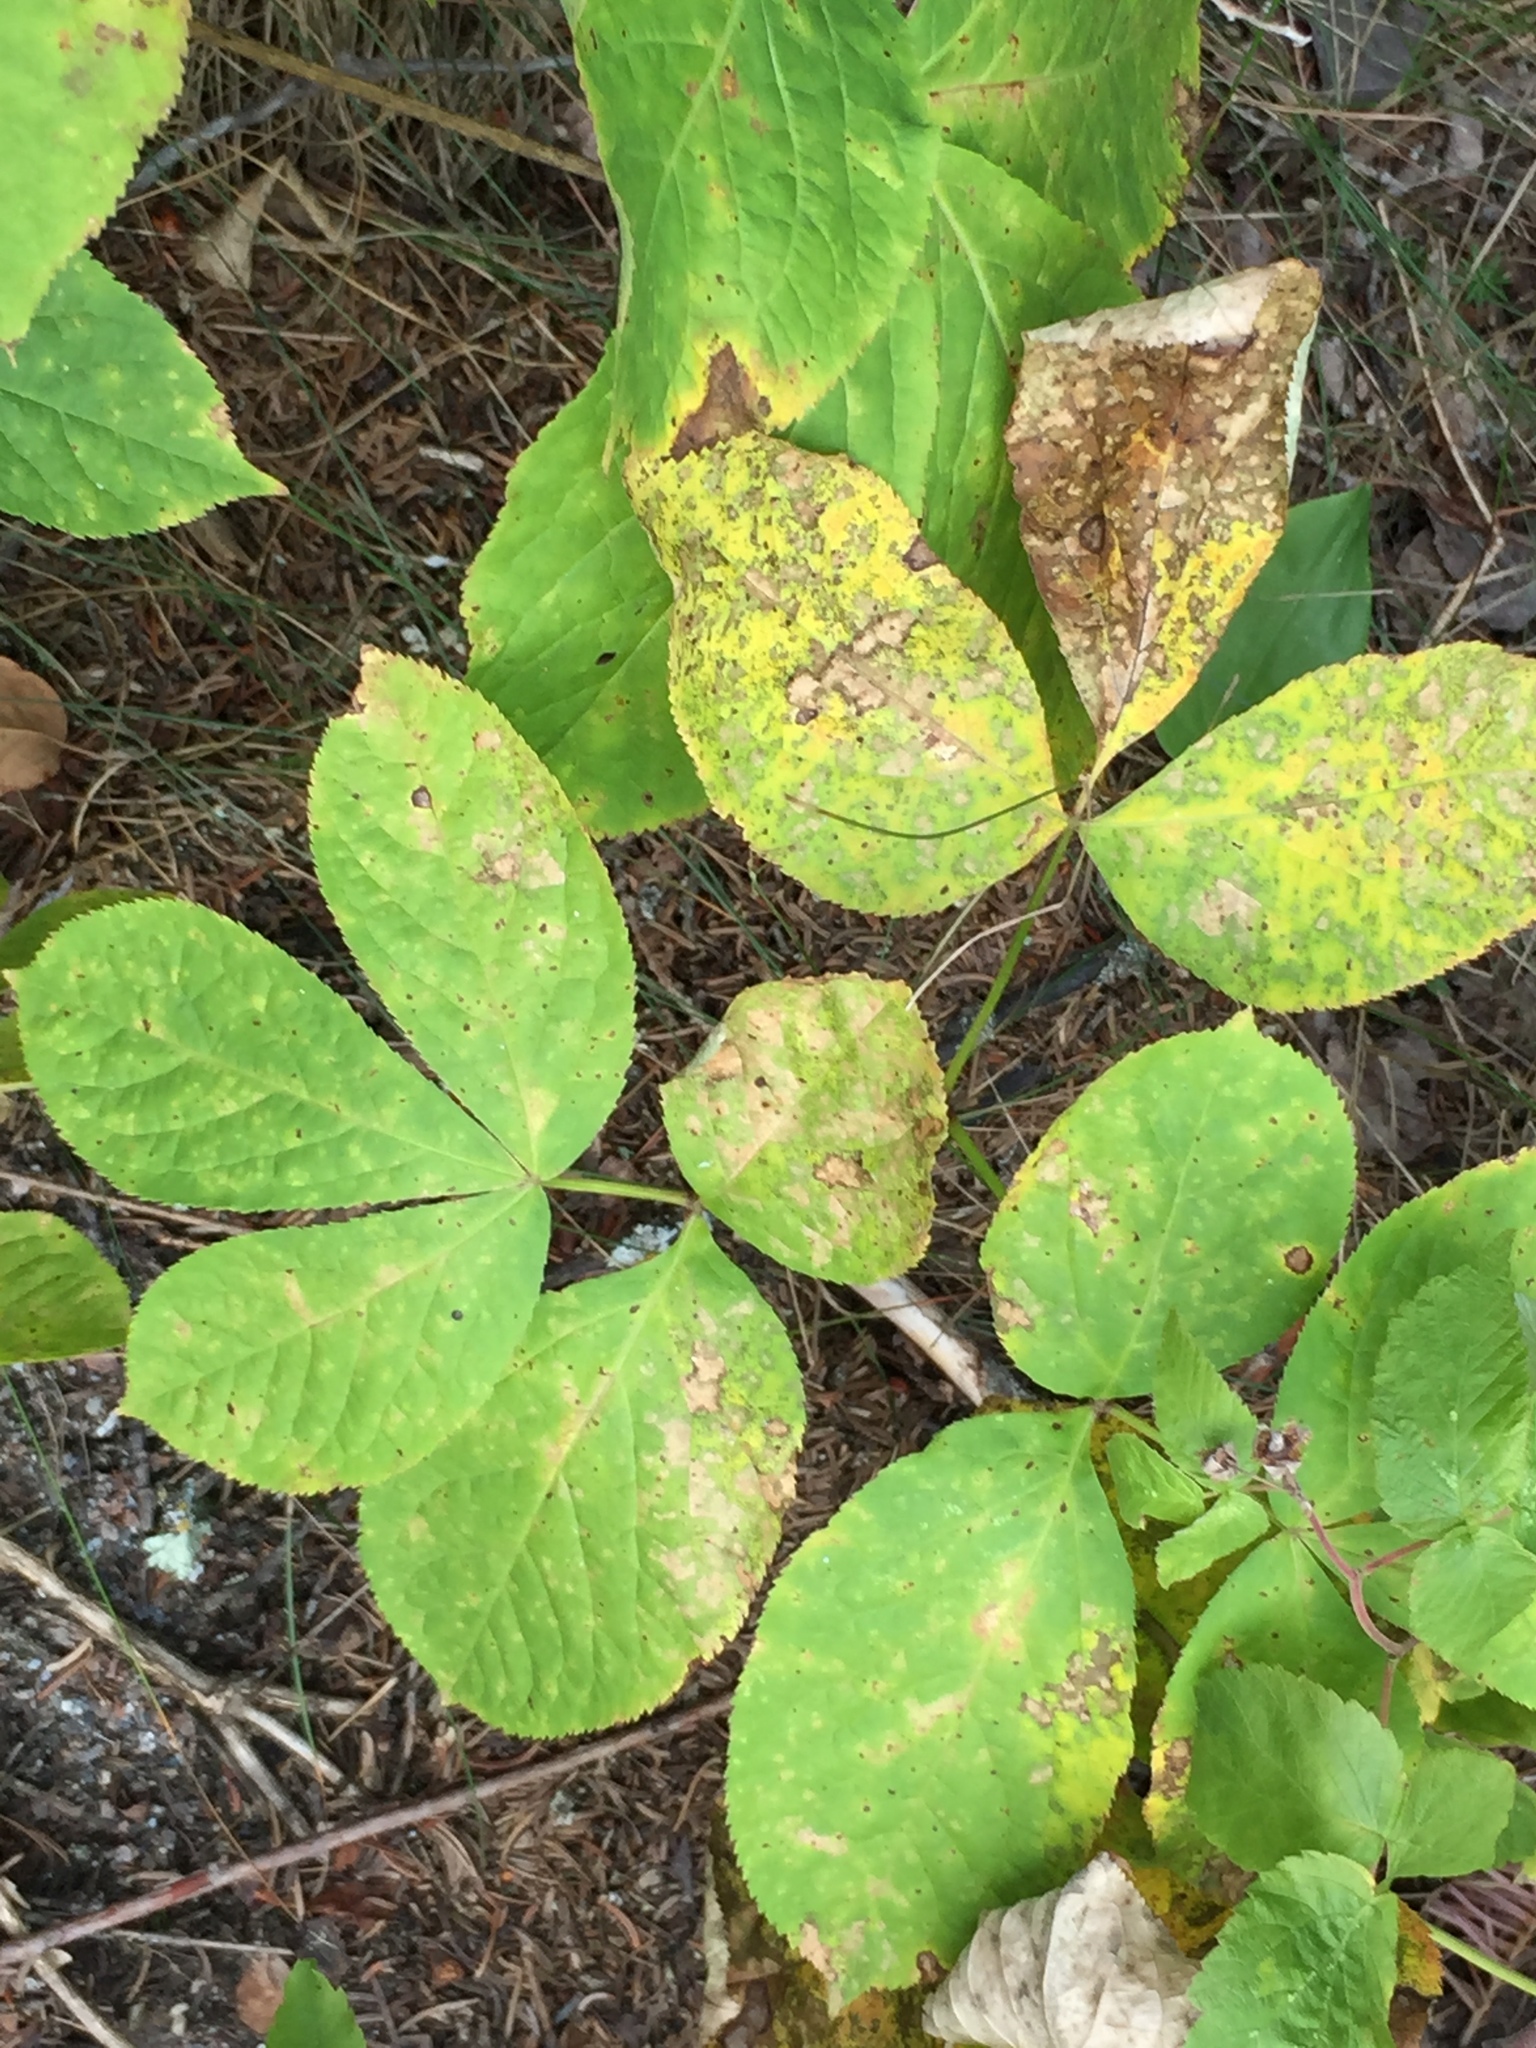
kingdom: Plantae
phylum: Tracheophyta
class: Magnoliopsida
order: Apiales
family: Araliaceae
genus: Aralia
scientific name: Aralia nudicaulis
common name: Wild sarsaparilla
